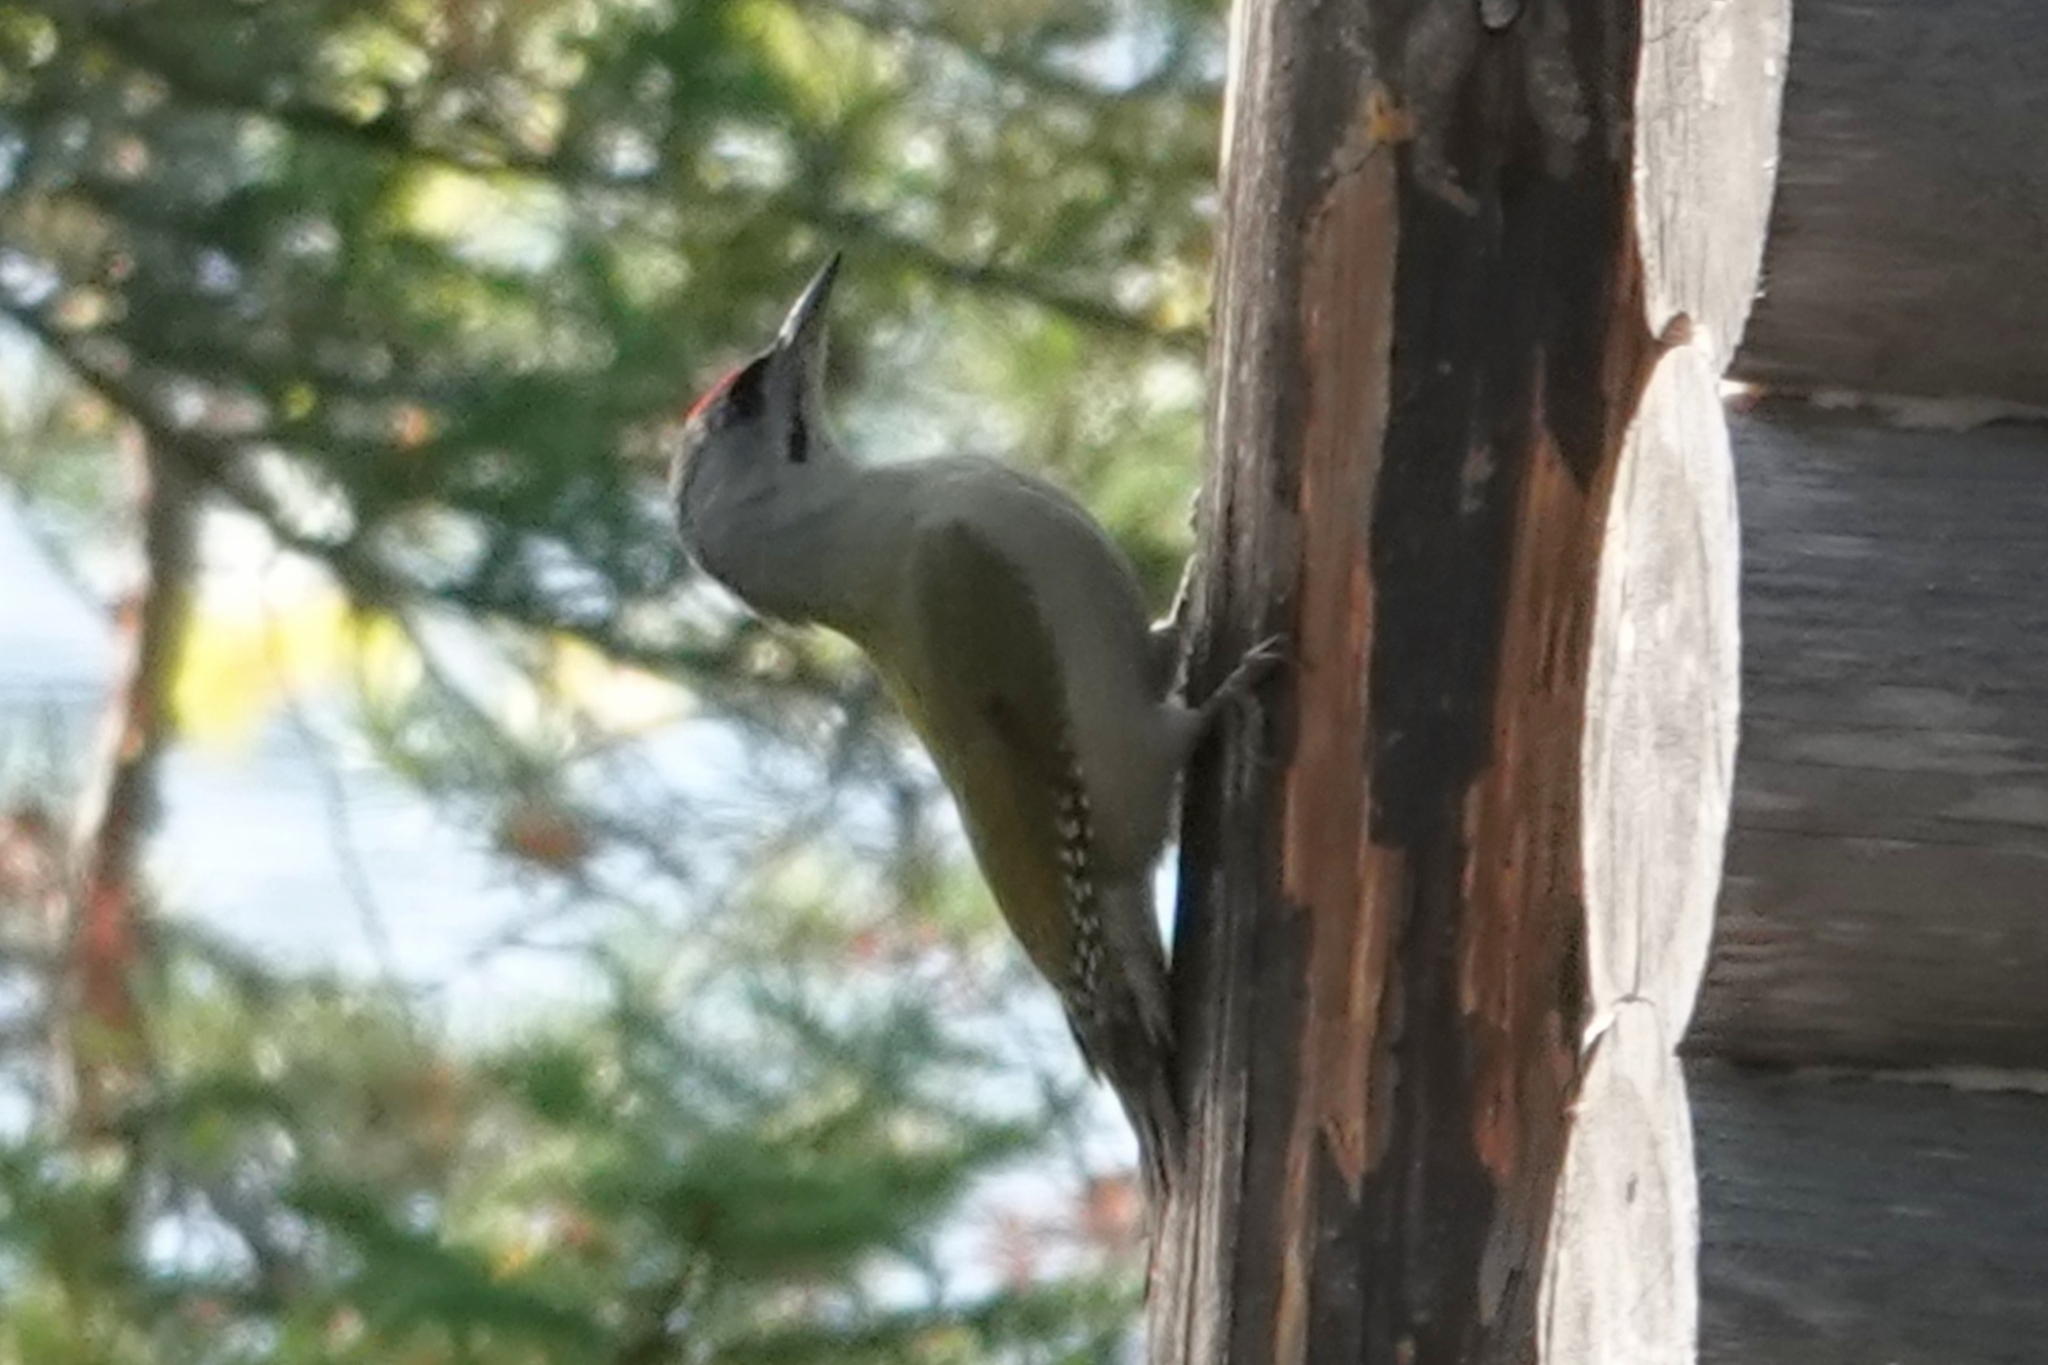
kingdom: Animalia
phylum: Chordata
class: Aves
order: Piciformes
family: Picidae
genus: Picus
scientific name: Picus canus
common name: Grey-headed woodpecker
